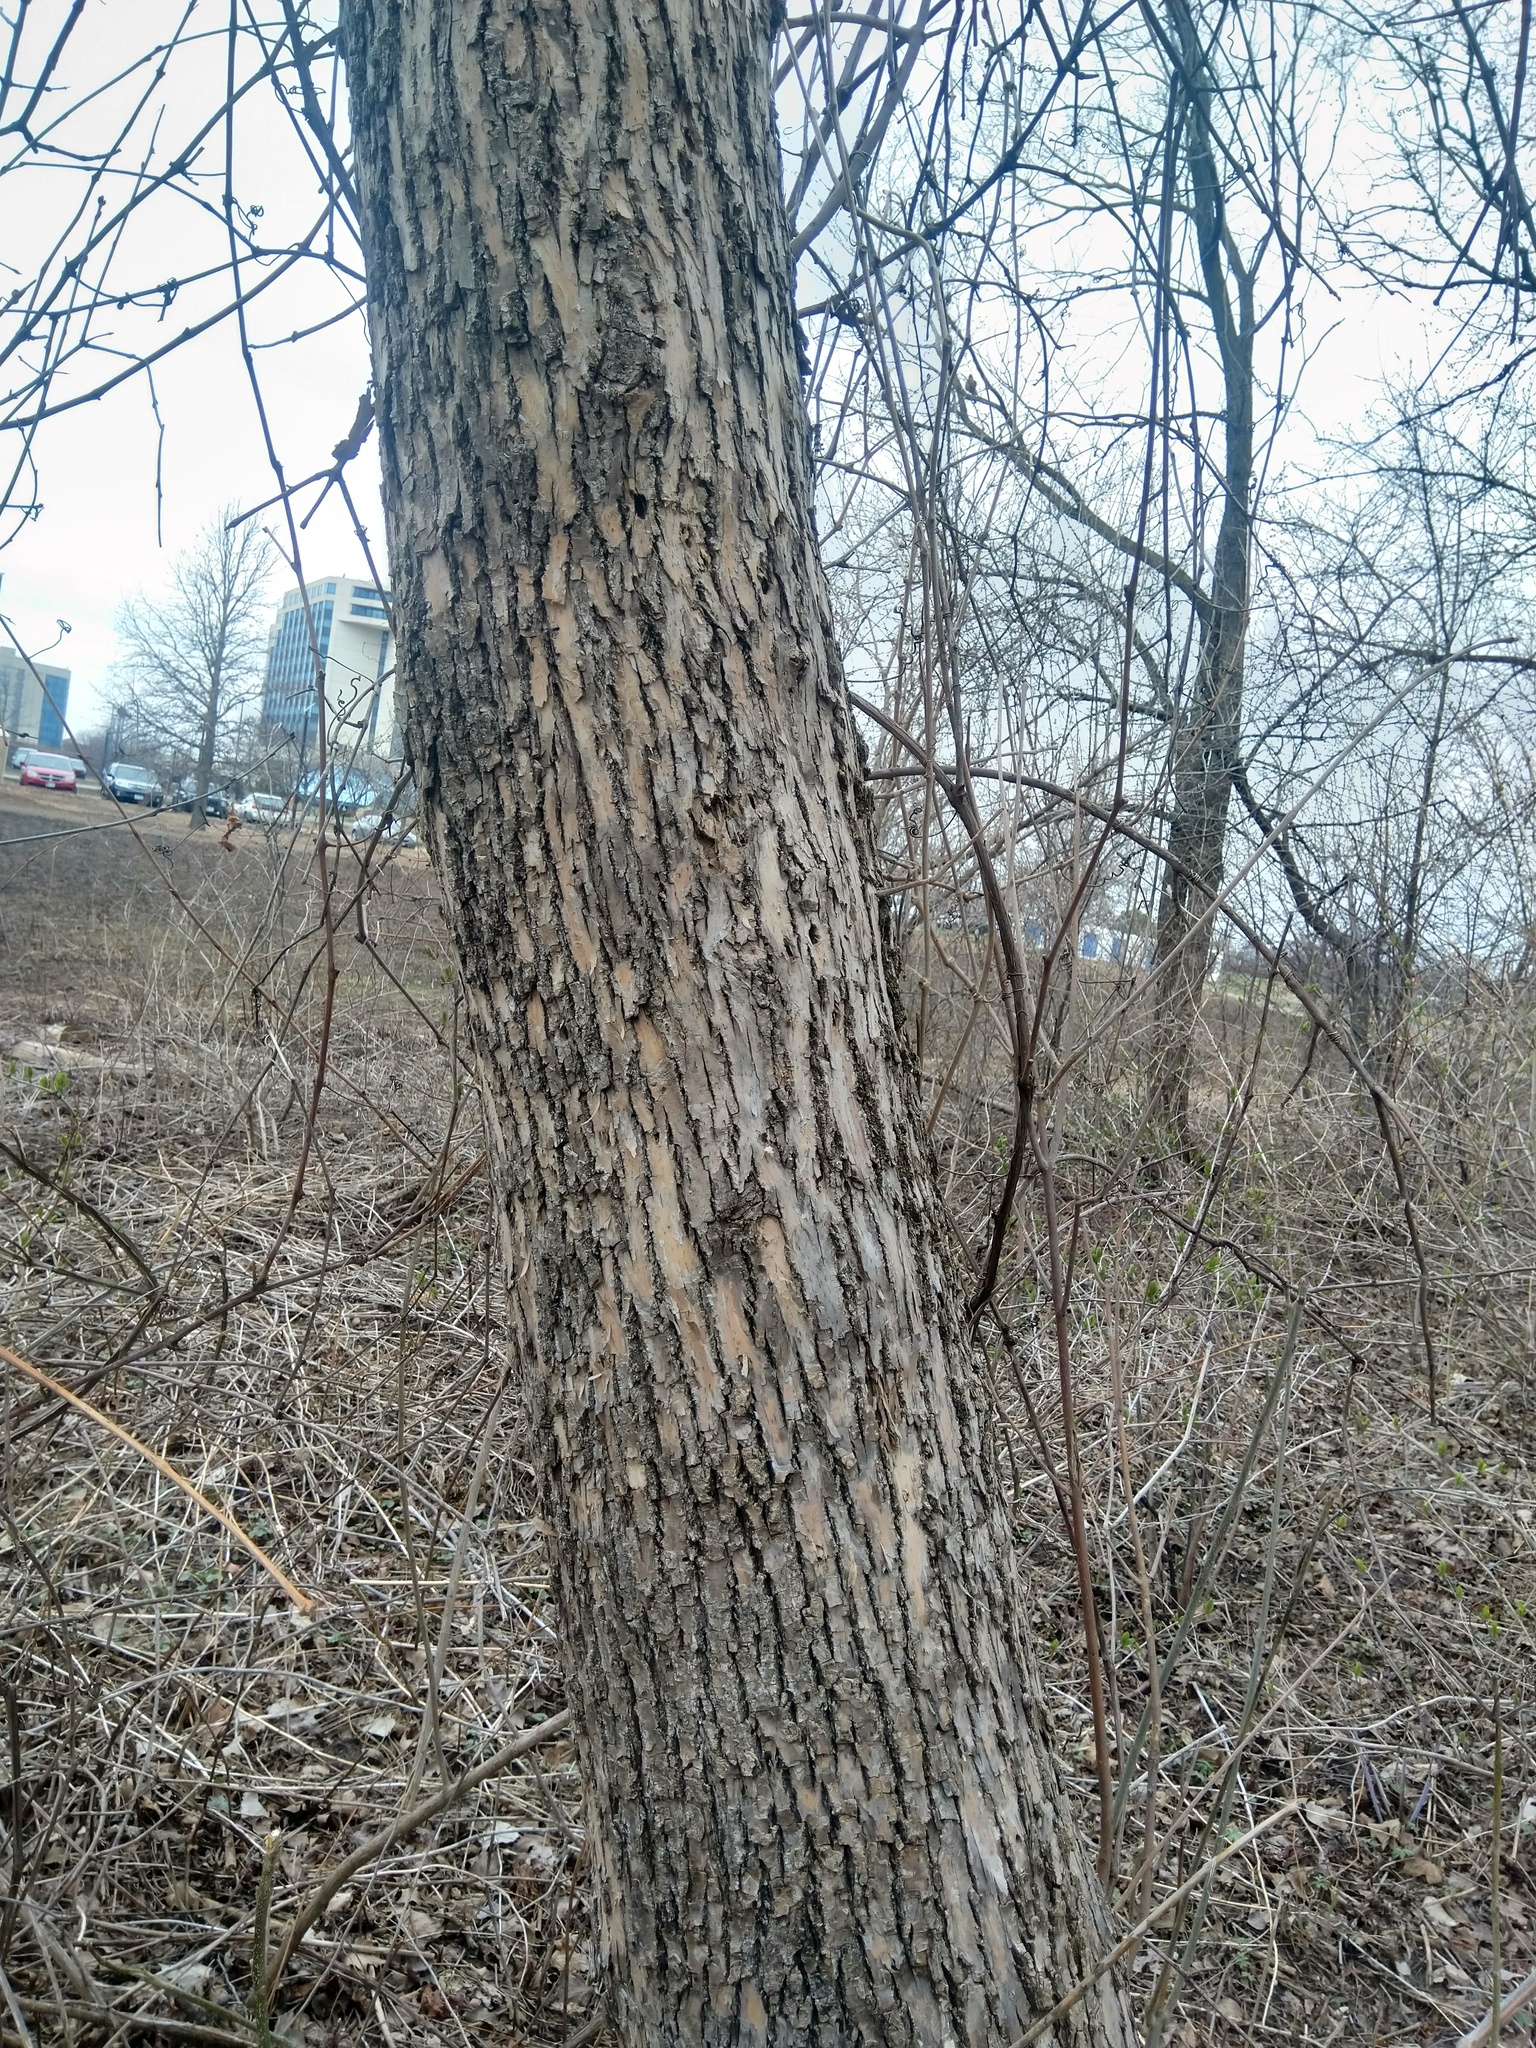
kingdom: Animalia
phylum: Arthropoda
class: Insecta
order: Coleoptera
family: Buprestidae
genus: Agrilus
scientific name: Agrilus planipennis
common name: Emerald ash borer
